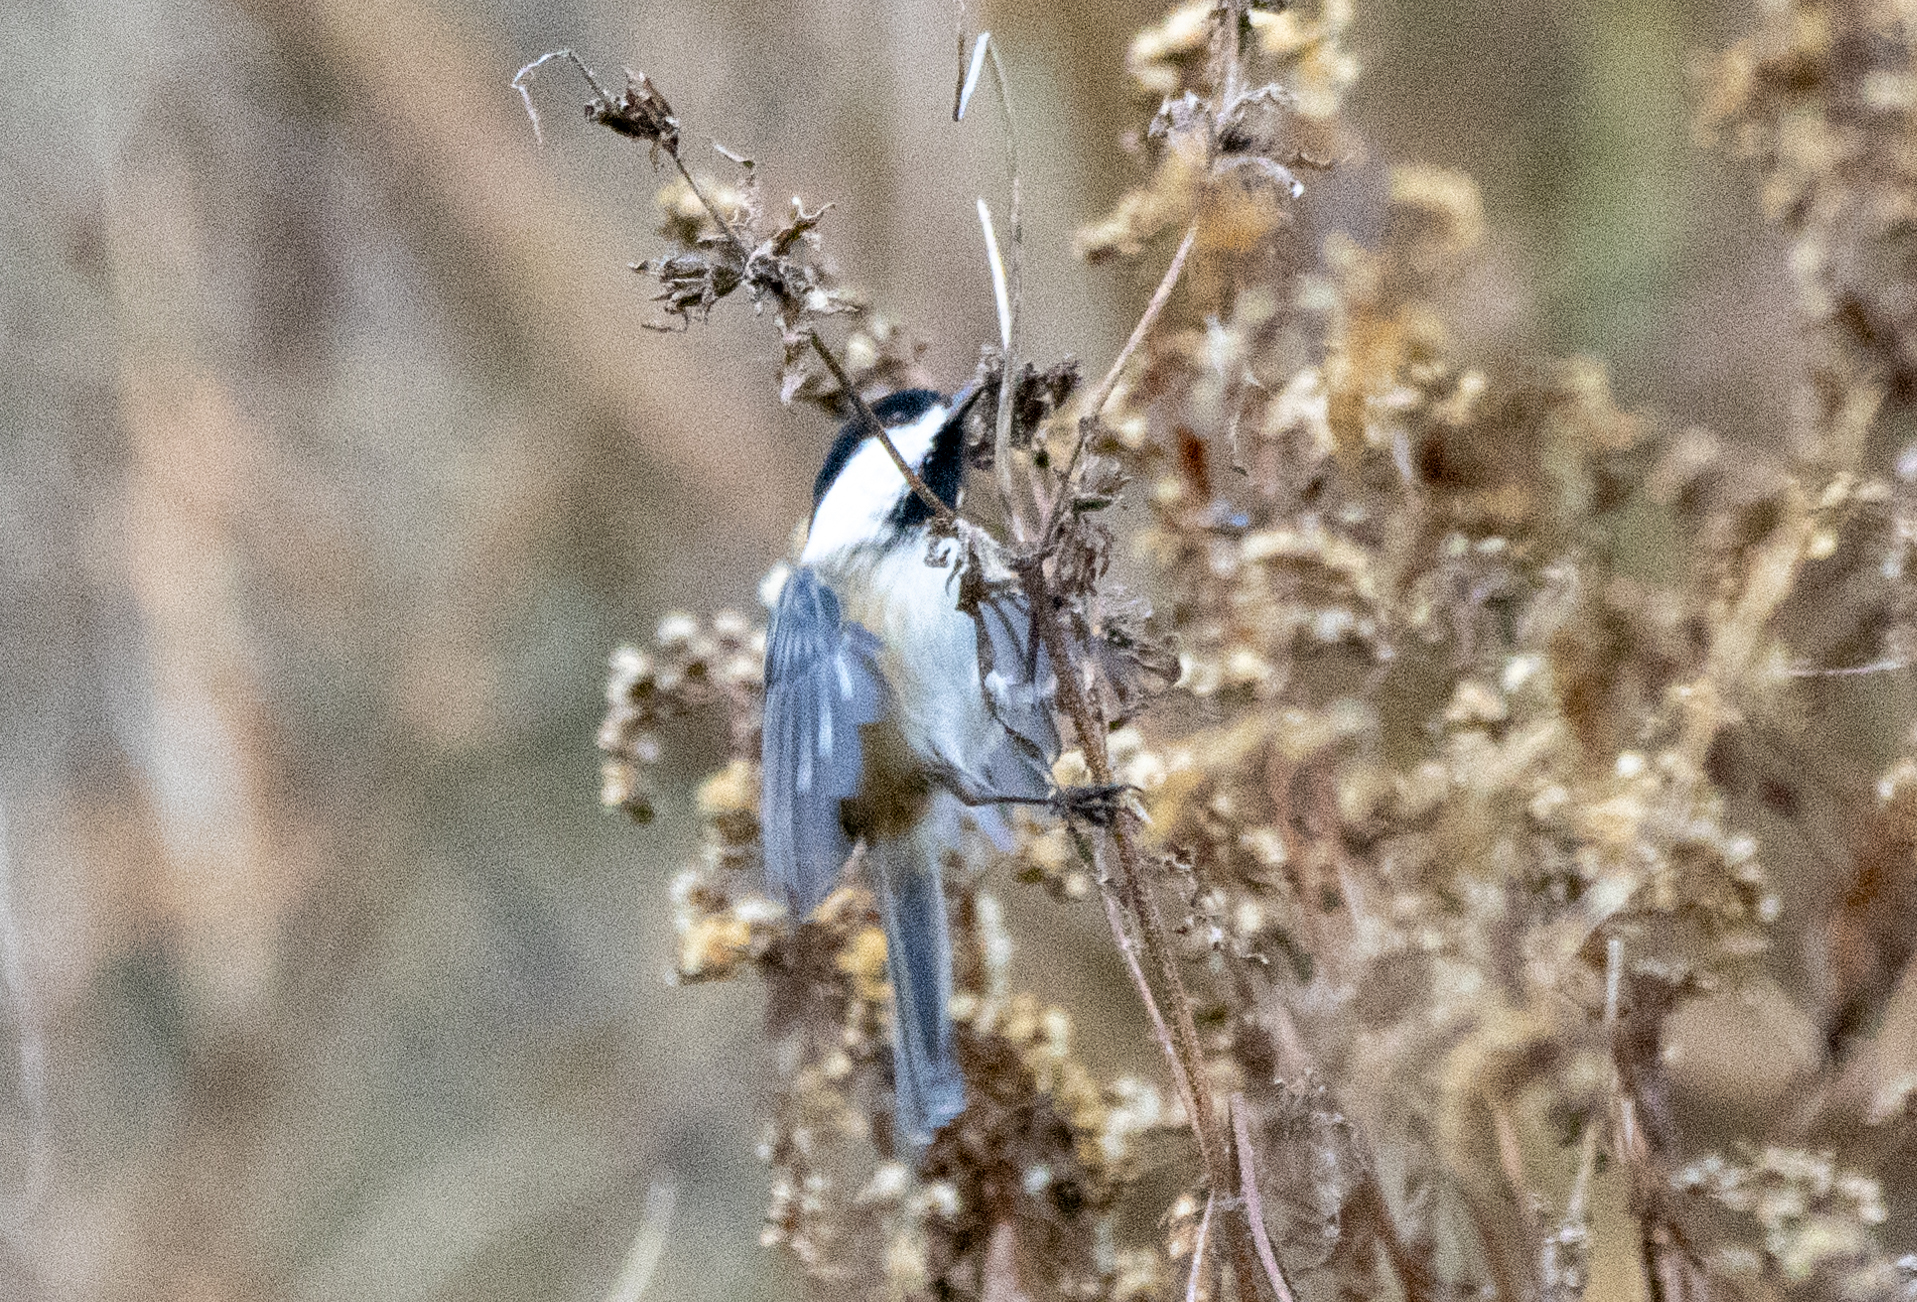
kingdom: Animalia
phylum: Chordata
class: Aves
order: Passeriformes
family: Paridae
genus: Poecile
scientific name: Poecile atricapillus
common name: Black-capped chickadee
